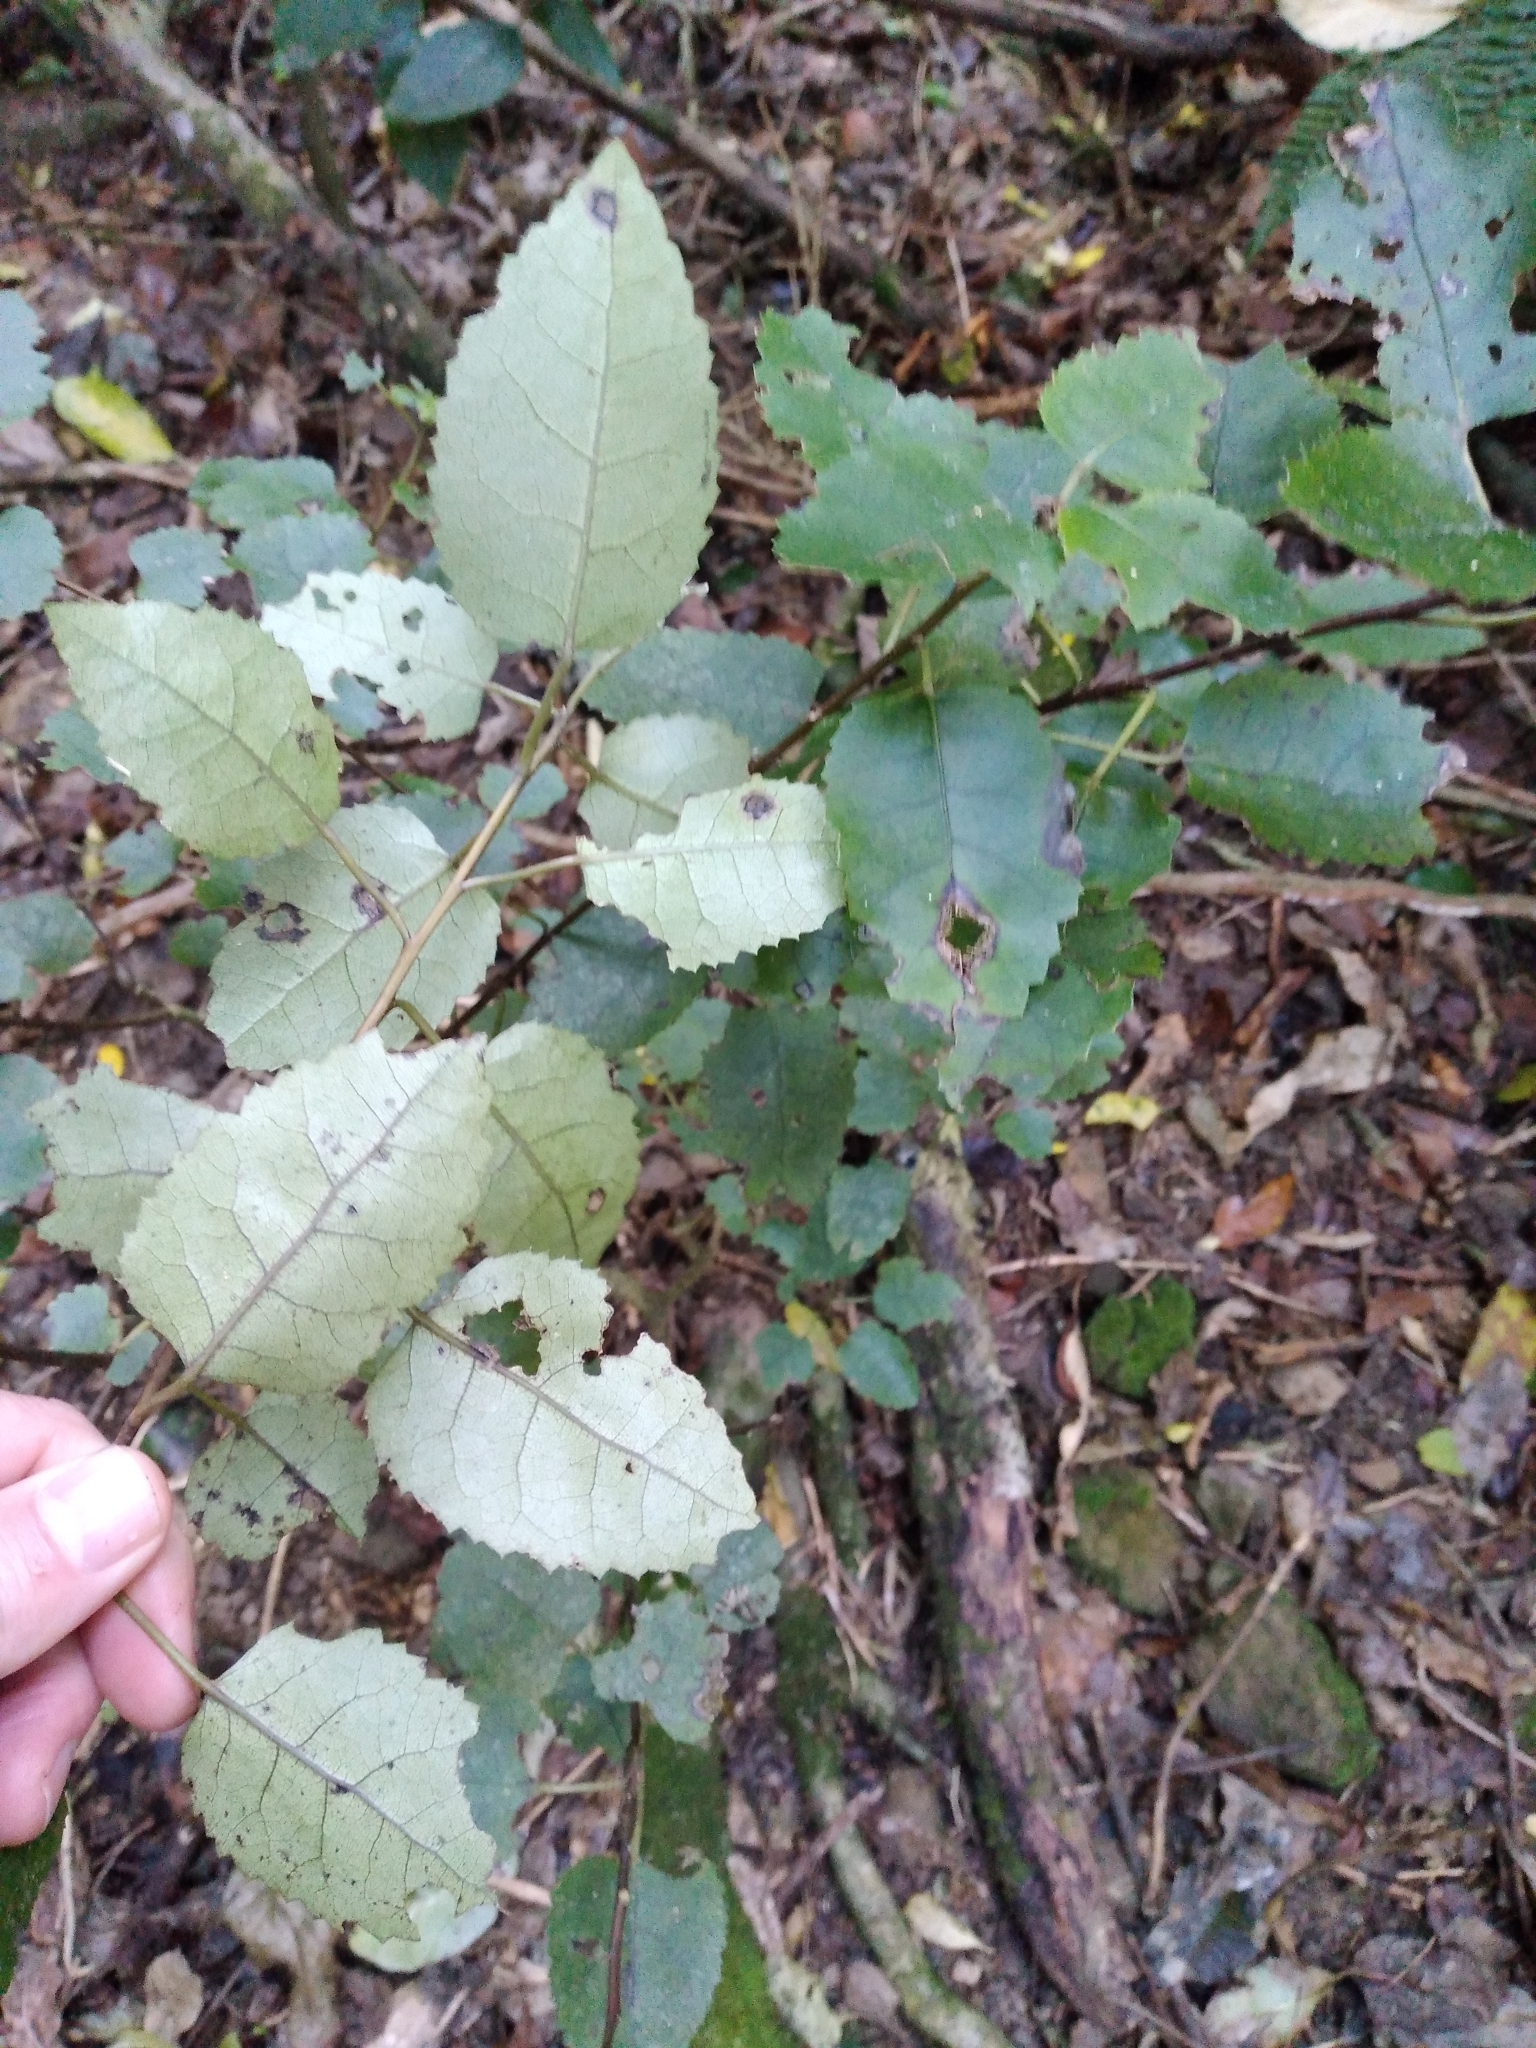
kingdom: Plantae
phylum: Tracheophyta
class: Magnoliopsida
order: Malvales
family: Malvaceae
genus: Hoheria
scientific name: Hoheria populnea
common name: Lacebark
